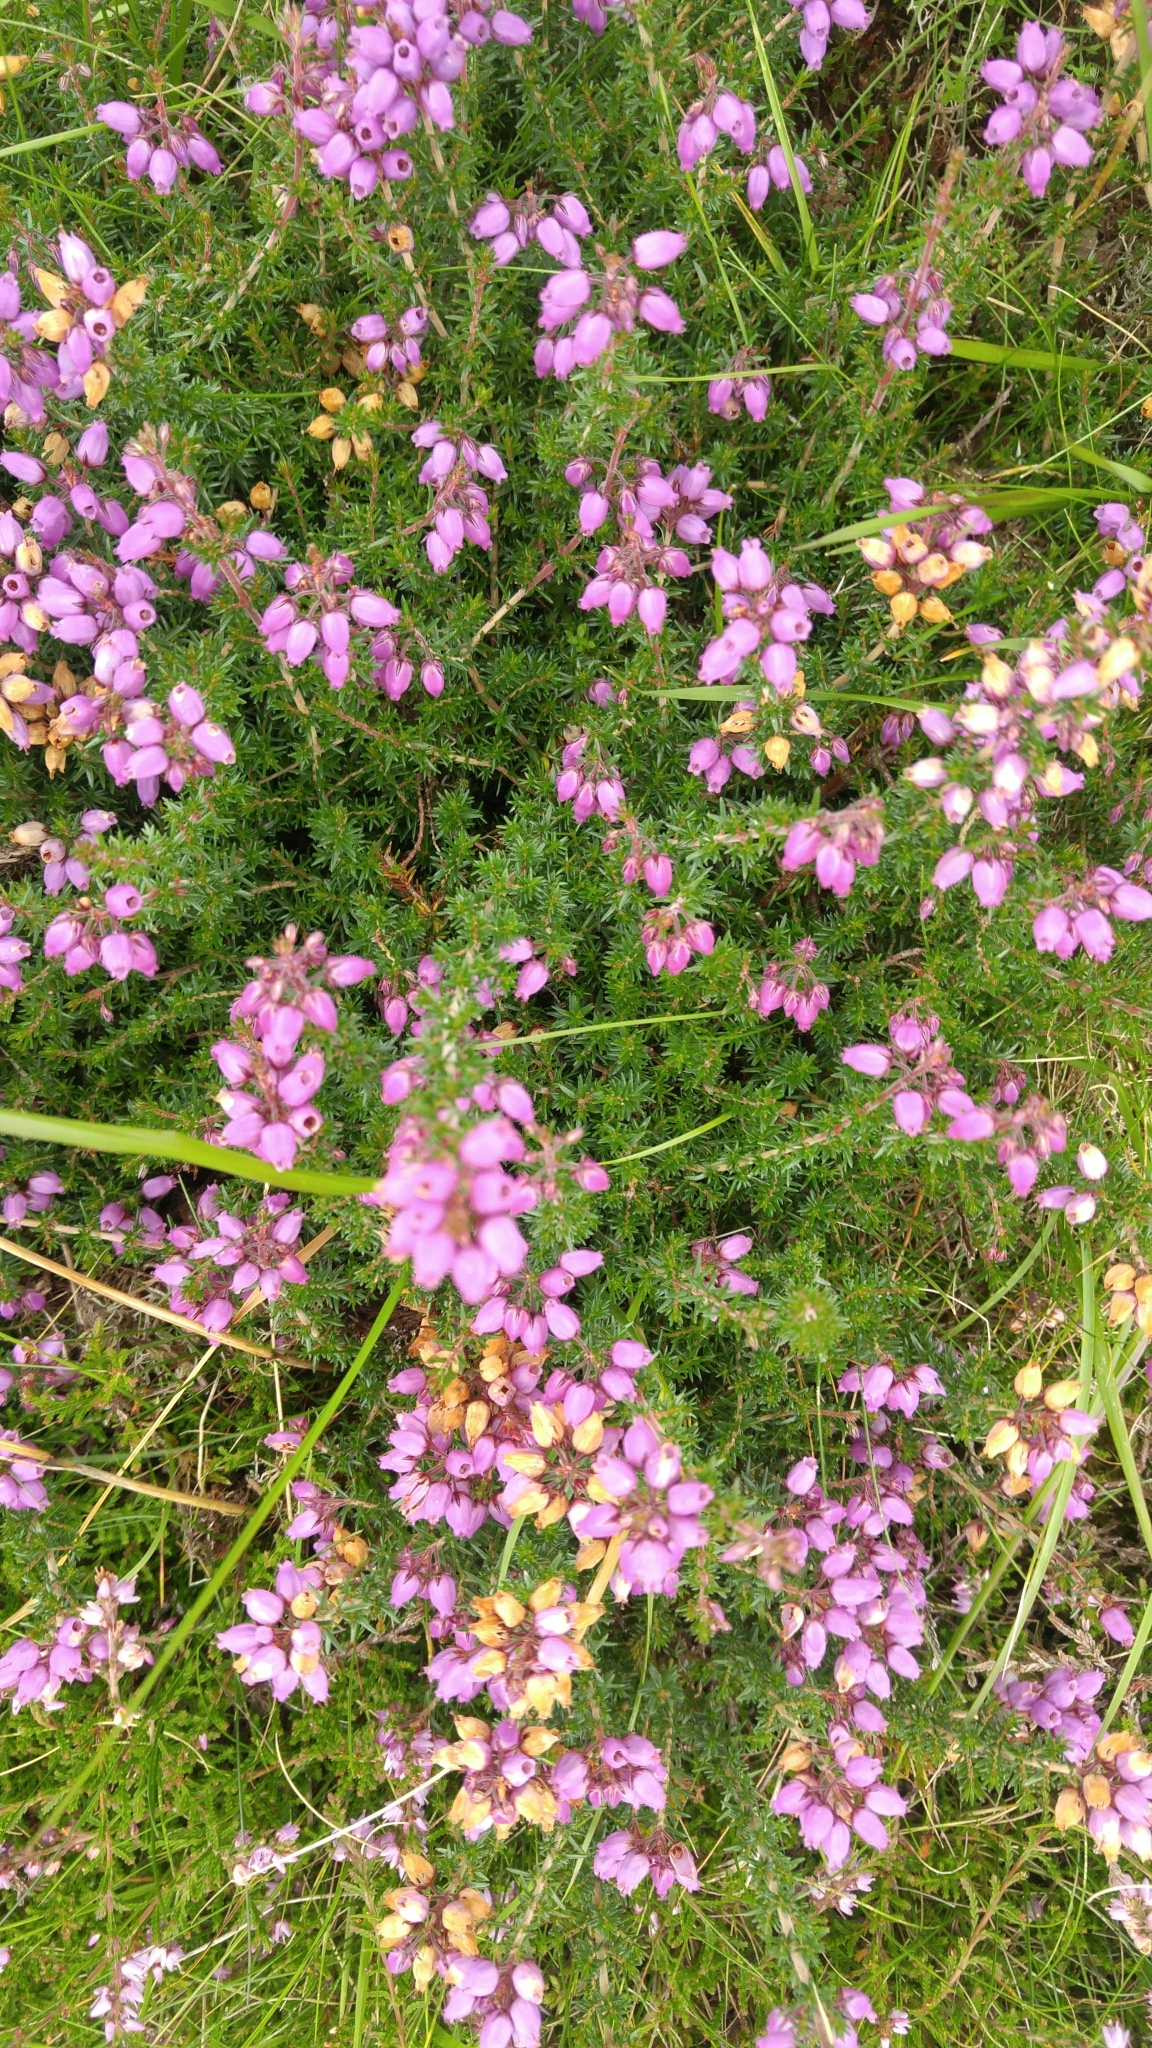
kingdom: Plantae
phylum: Tracheophyta
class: Magnoliopsida
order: Ericales
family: Ericaceae
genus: Erica
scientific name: Erica cinerea
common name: Bell heather
